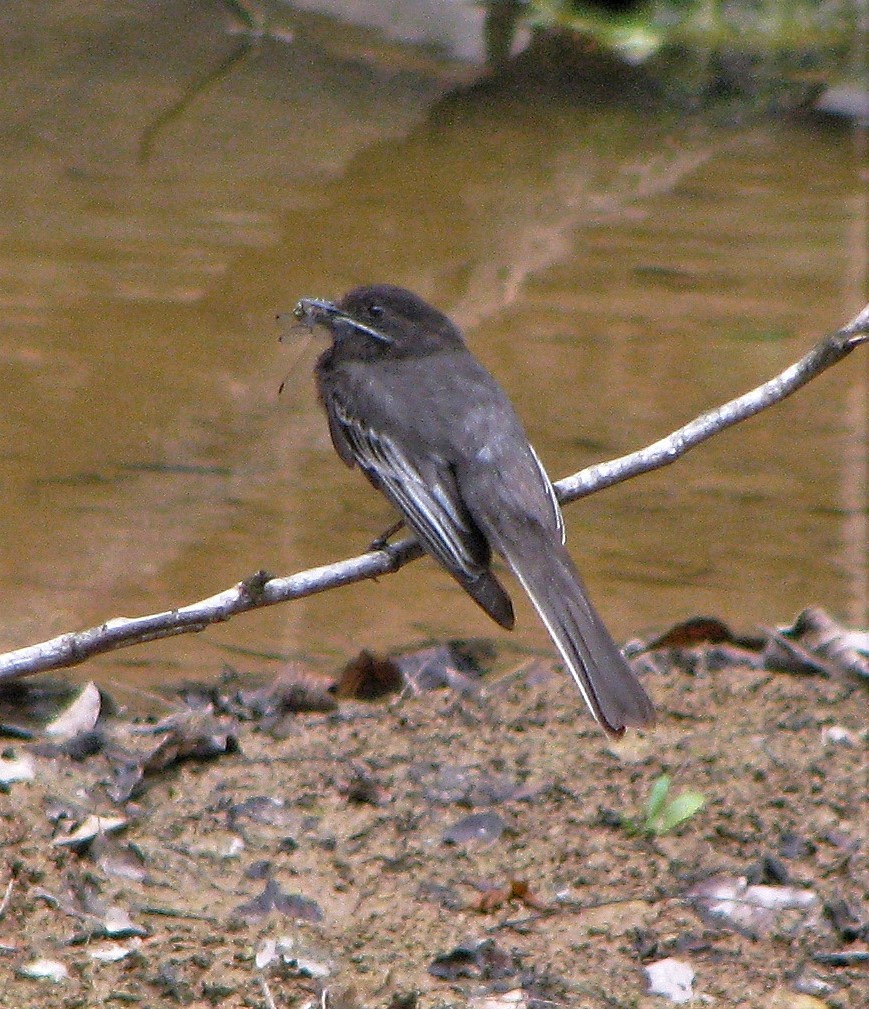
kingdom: Animalia
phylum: Chordata
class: Aves
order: Passeriformes
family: Tyrannidae
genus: Sayornis
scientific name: Sayornis nigricans
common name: Black phoebe
